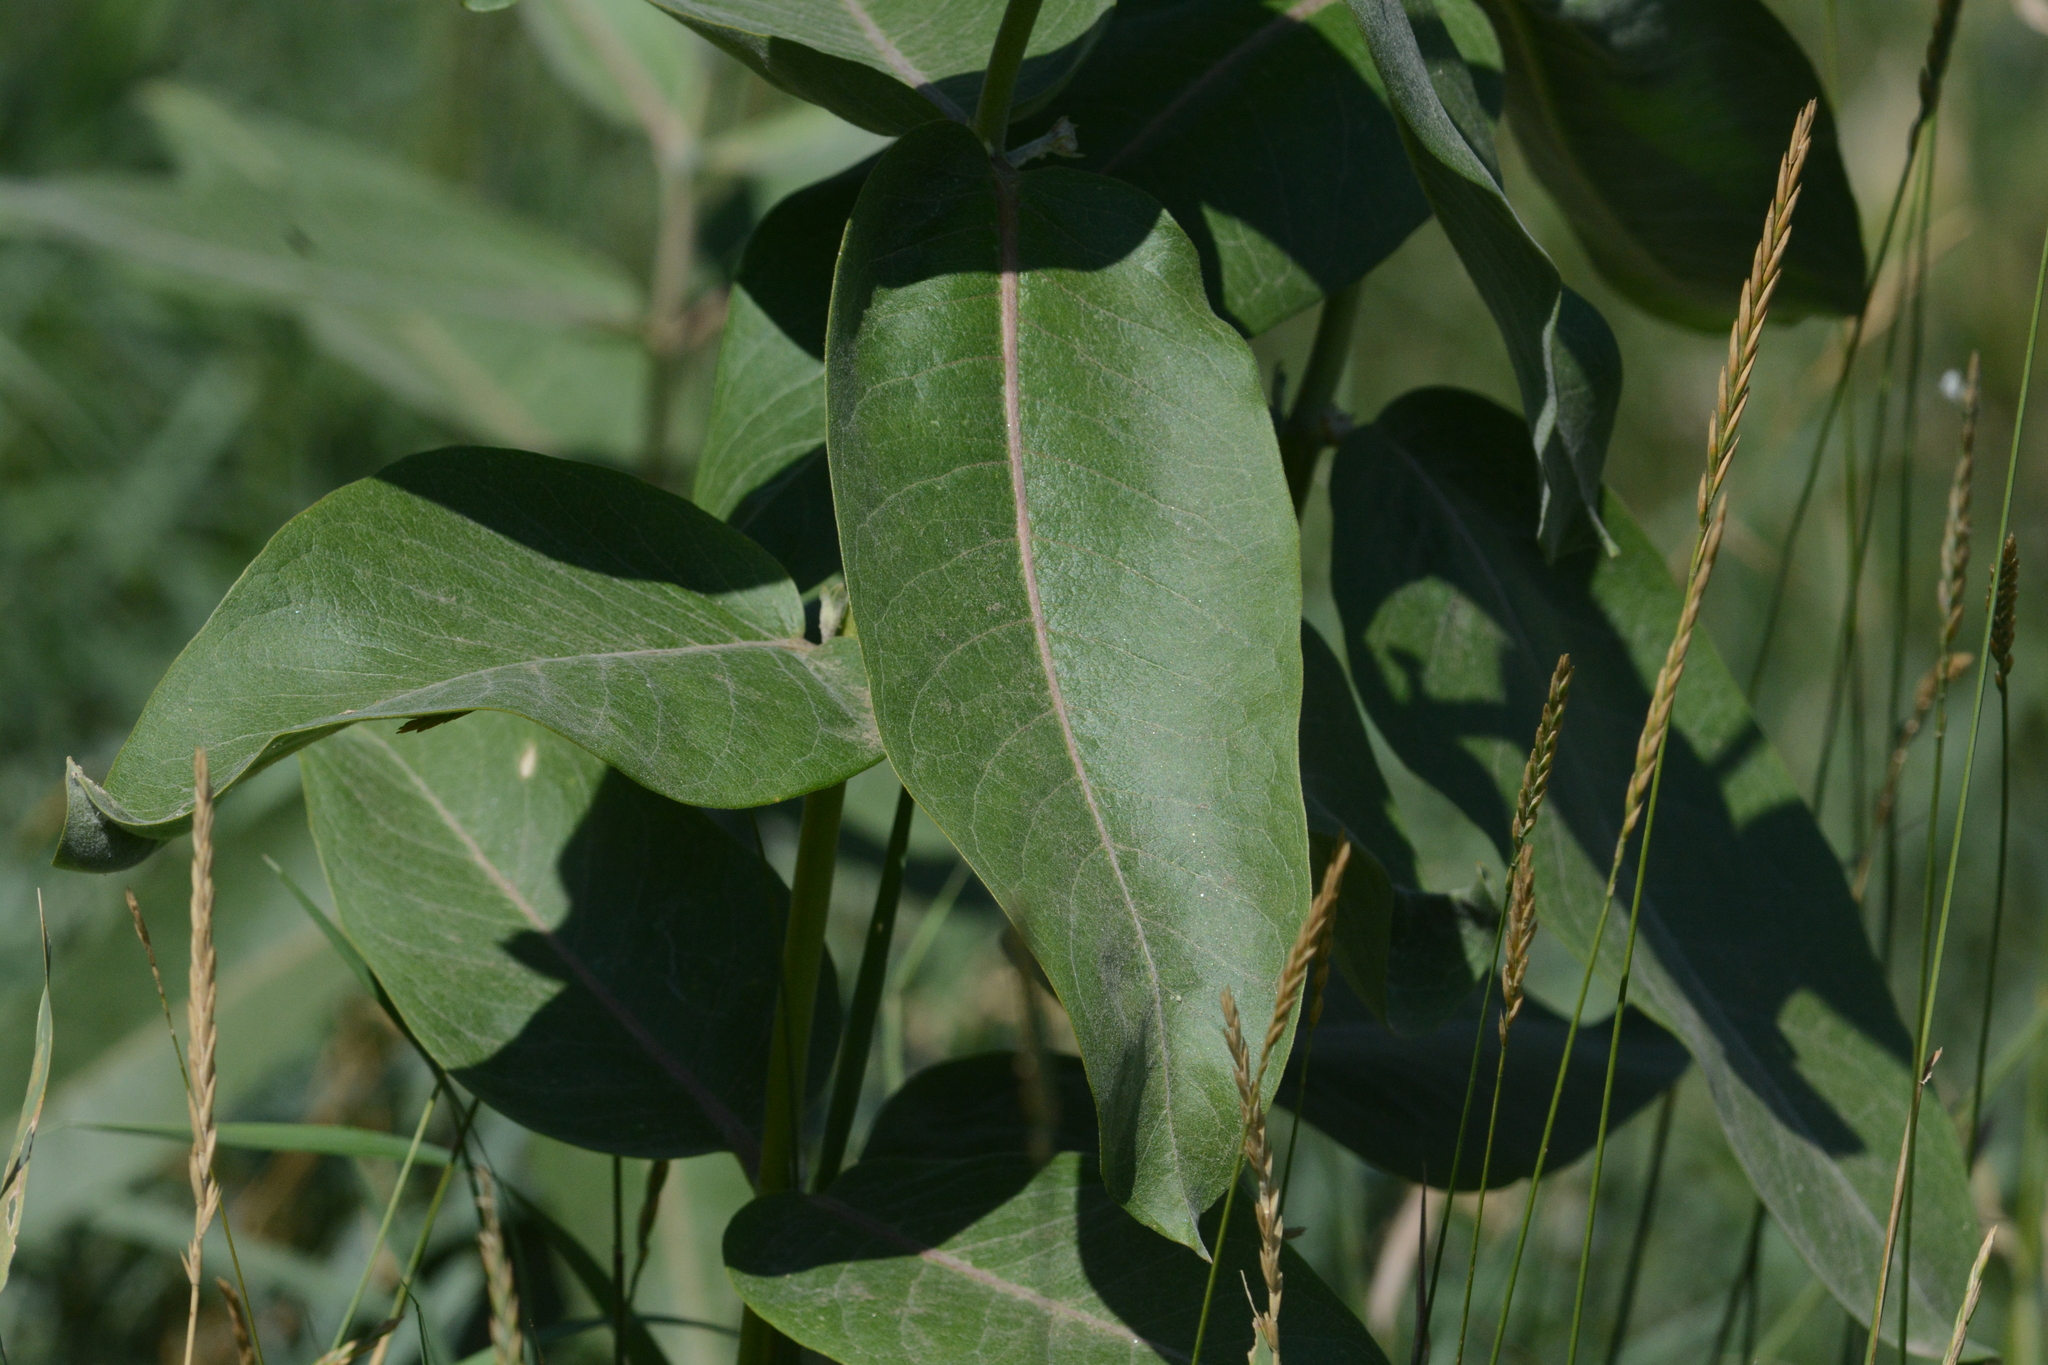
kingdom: Plantae
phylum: Tracheophyta
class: Magnoliopsida
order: Gentianales
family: Apocynaceae
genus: Asclepias
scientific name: Asclepias speciosa
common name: Showy milkweed
